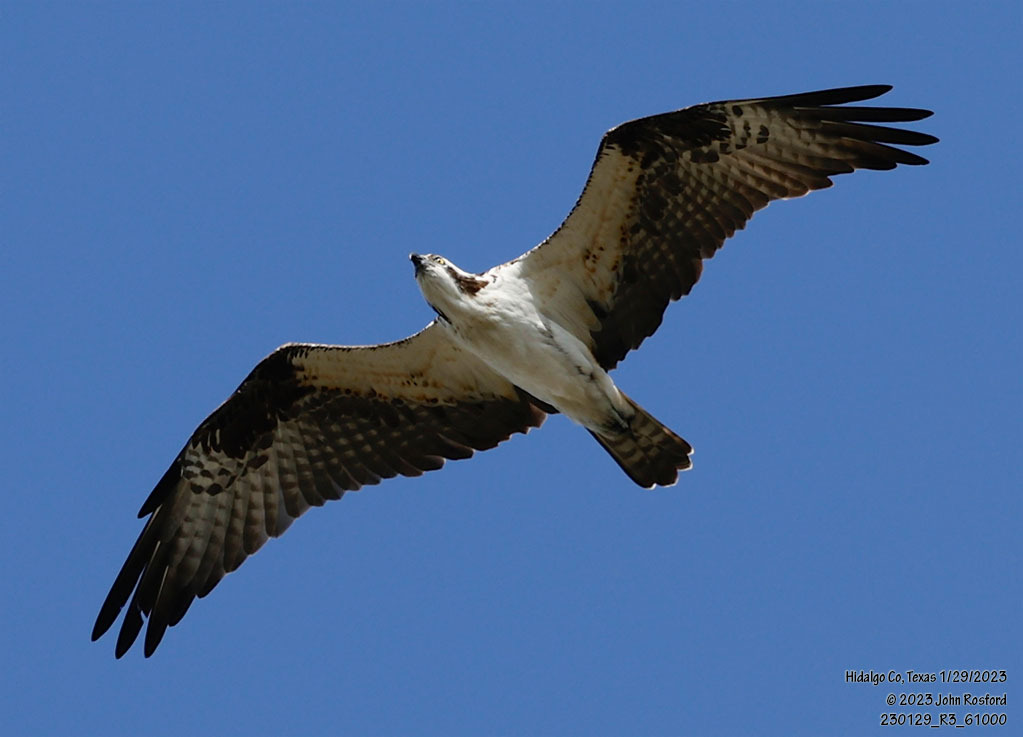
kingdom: Animalia
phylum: Chordata
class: Aves
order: Accipitriformes
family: Pandionidae
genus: Pandion
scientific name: Pandion haliaetus
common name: Osprey
